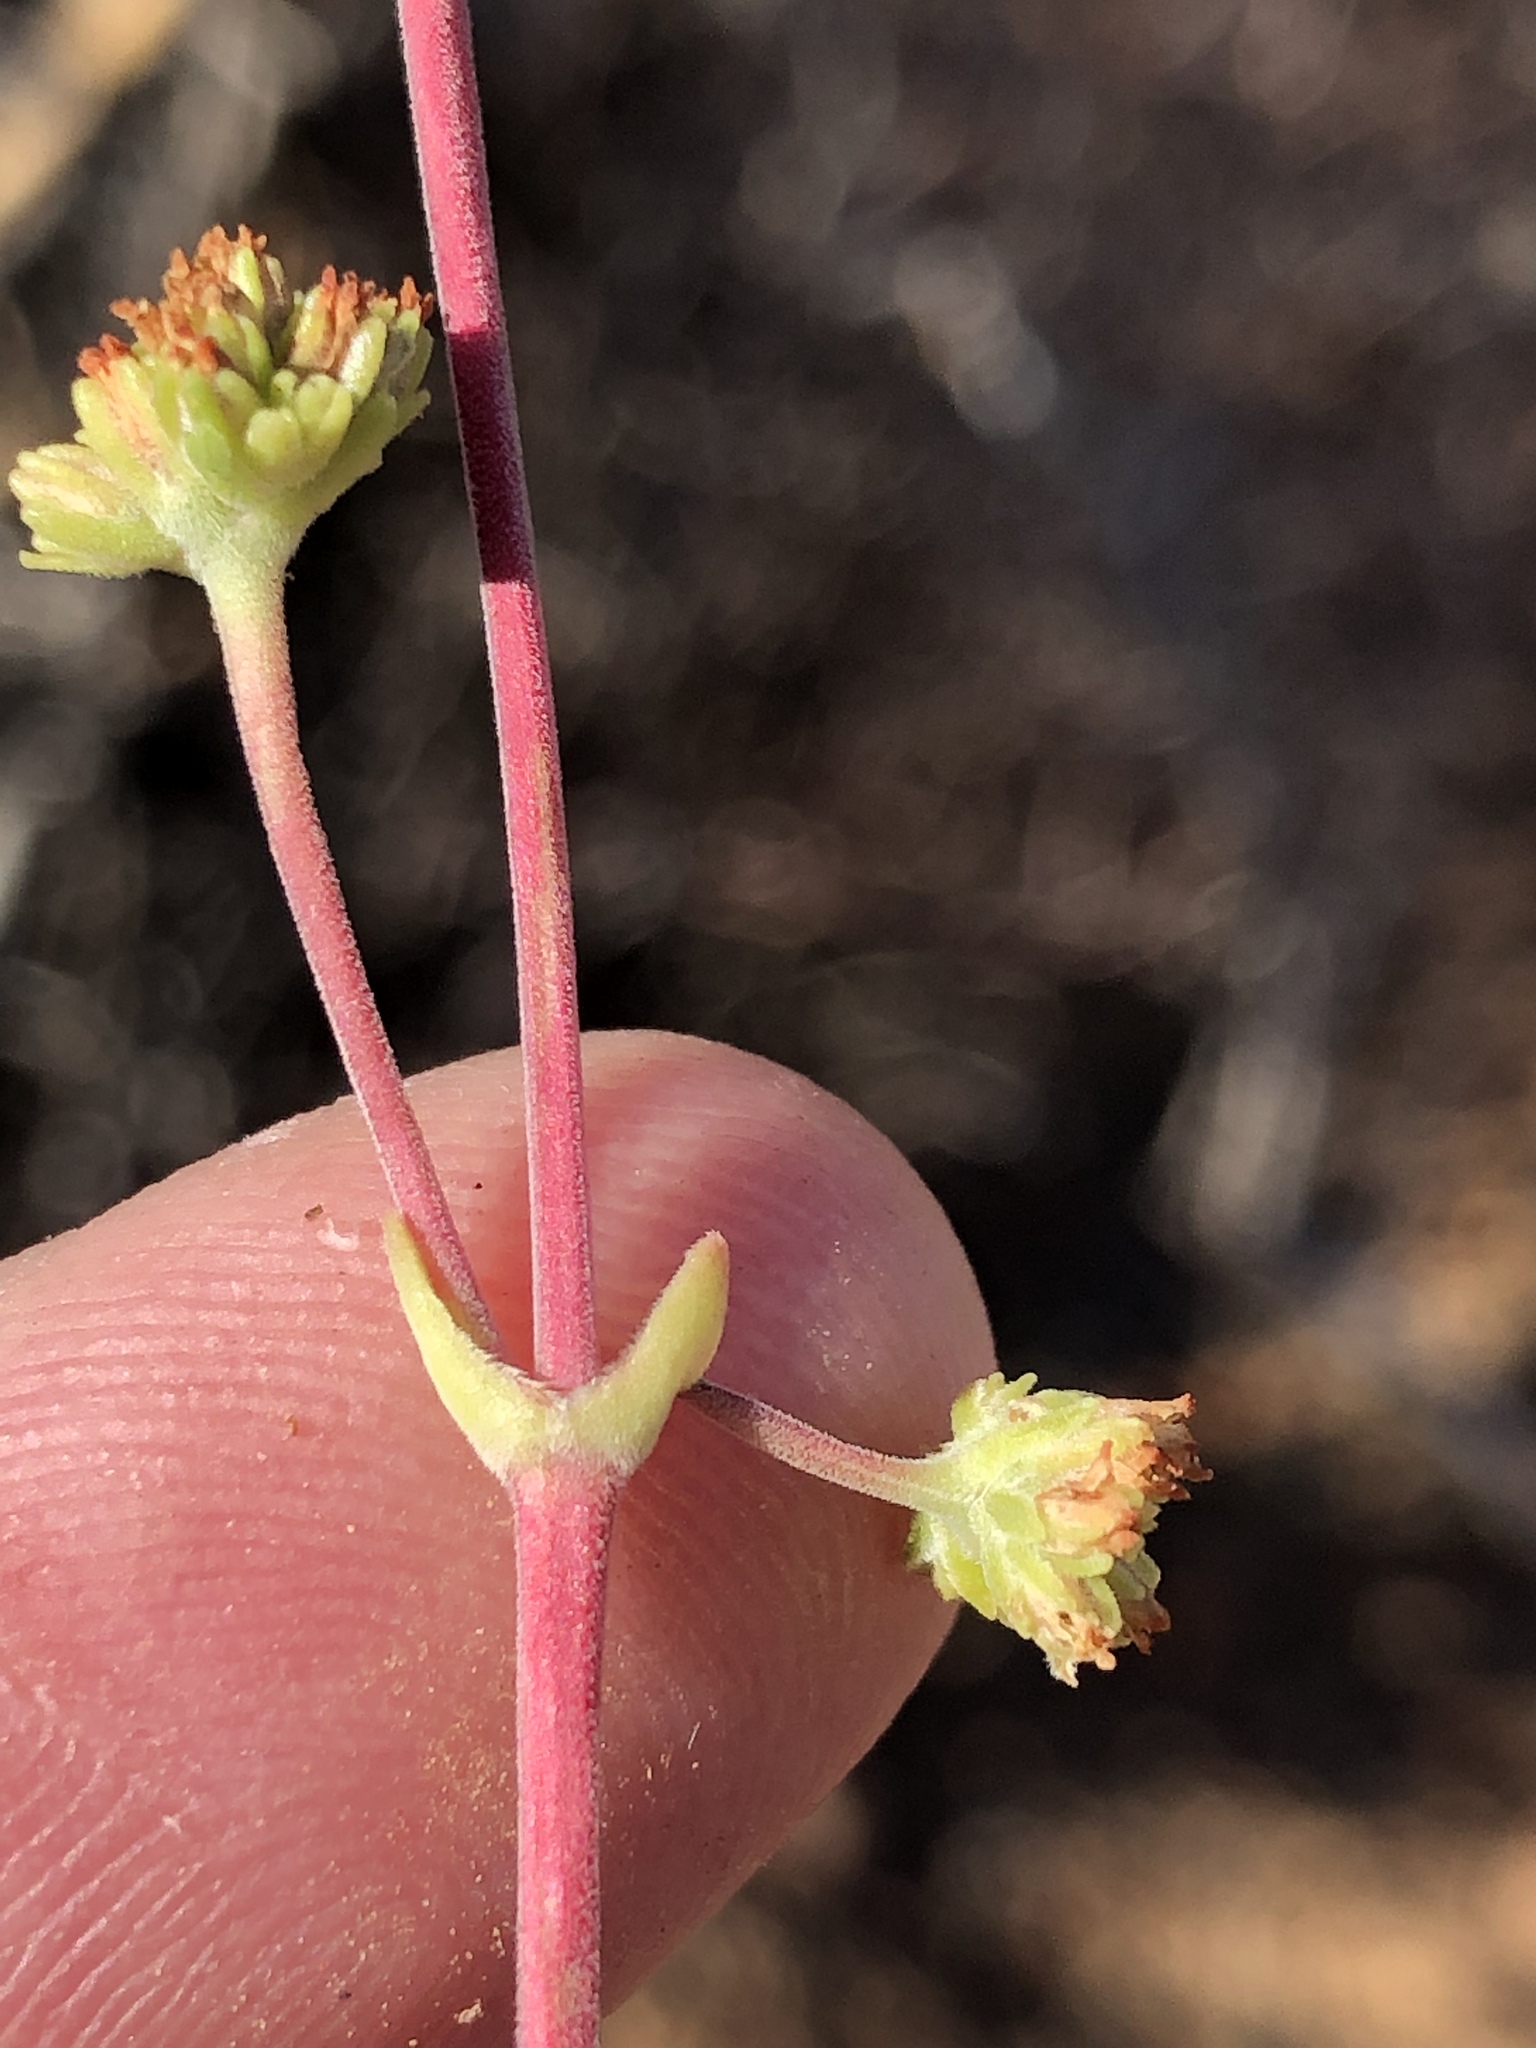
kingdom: Plantae
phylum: Tracheophyta
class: Magnoliopsida
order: Saxifragales
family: Crassulaceae
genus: Crassula
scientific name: Crassula pubescens
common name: Jersey pigmyweed
